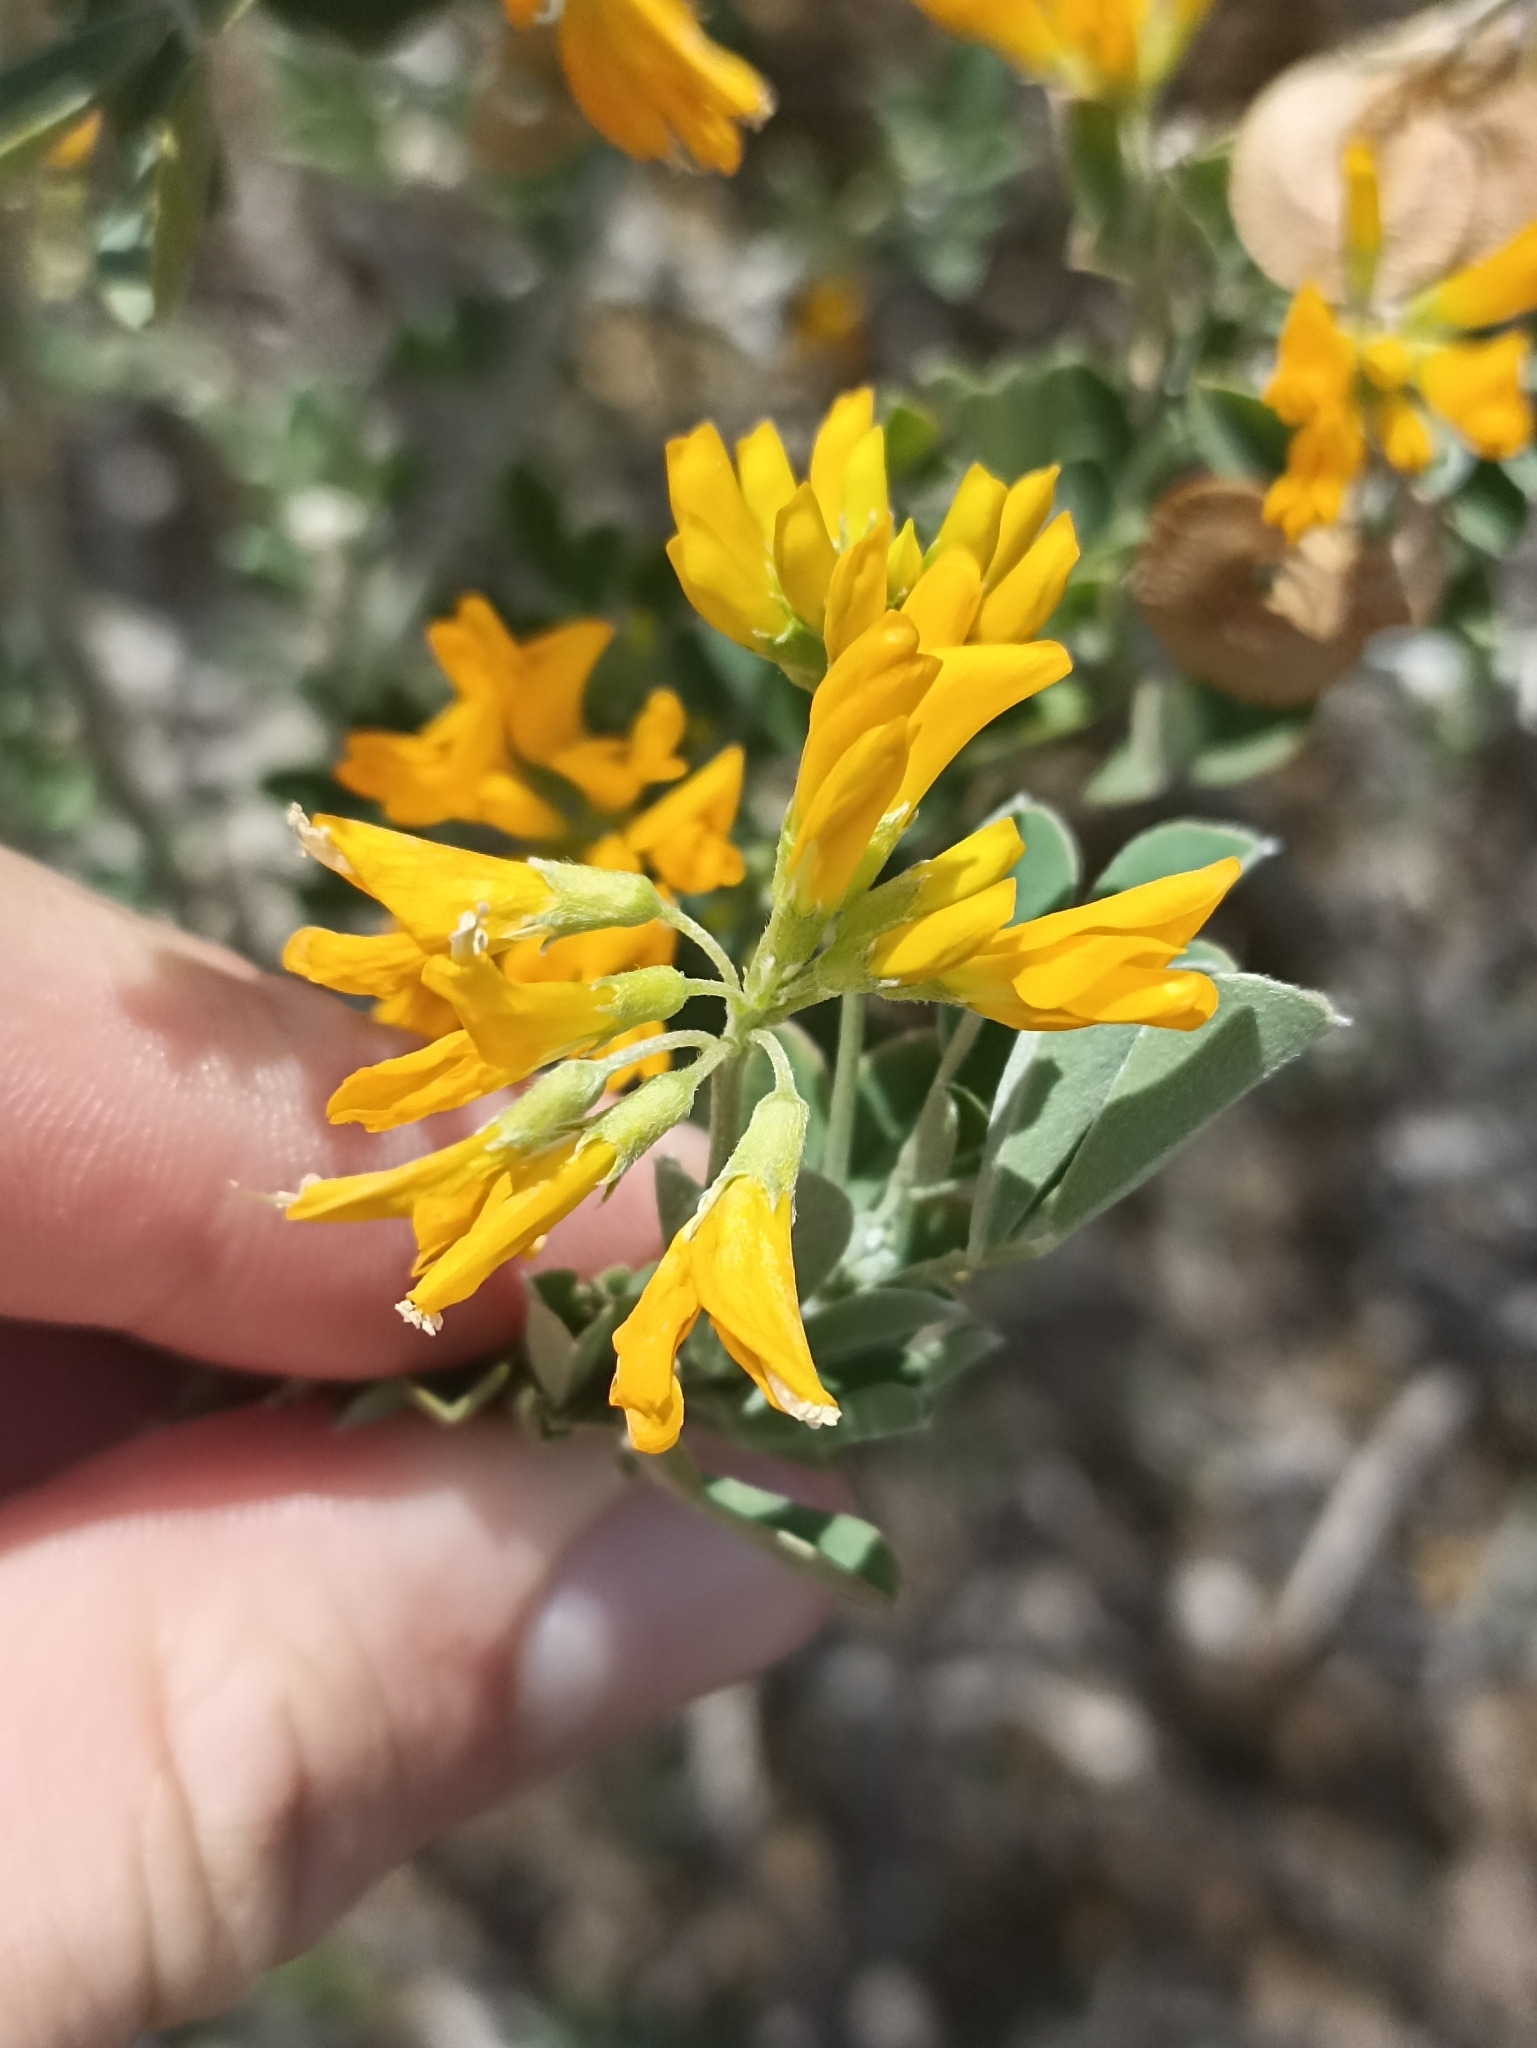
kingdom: Plantae
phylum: Tracheophyta
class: Magnoliopsida
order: Fabales
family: Fabaceae
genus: Medicago
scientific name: Medicago arborea
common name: Moon trefoil
